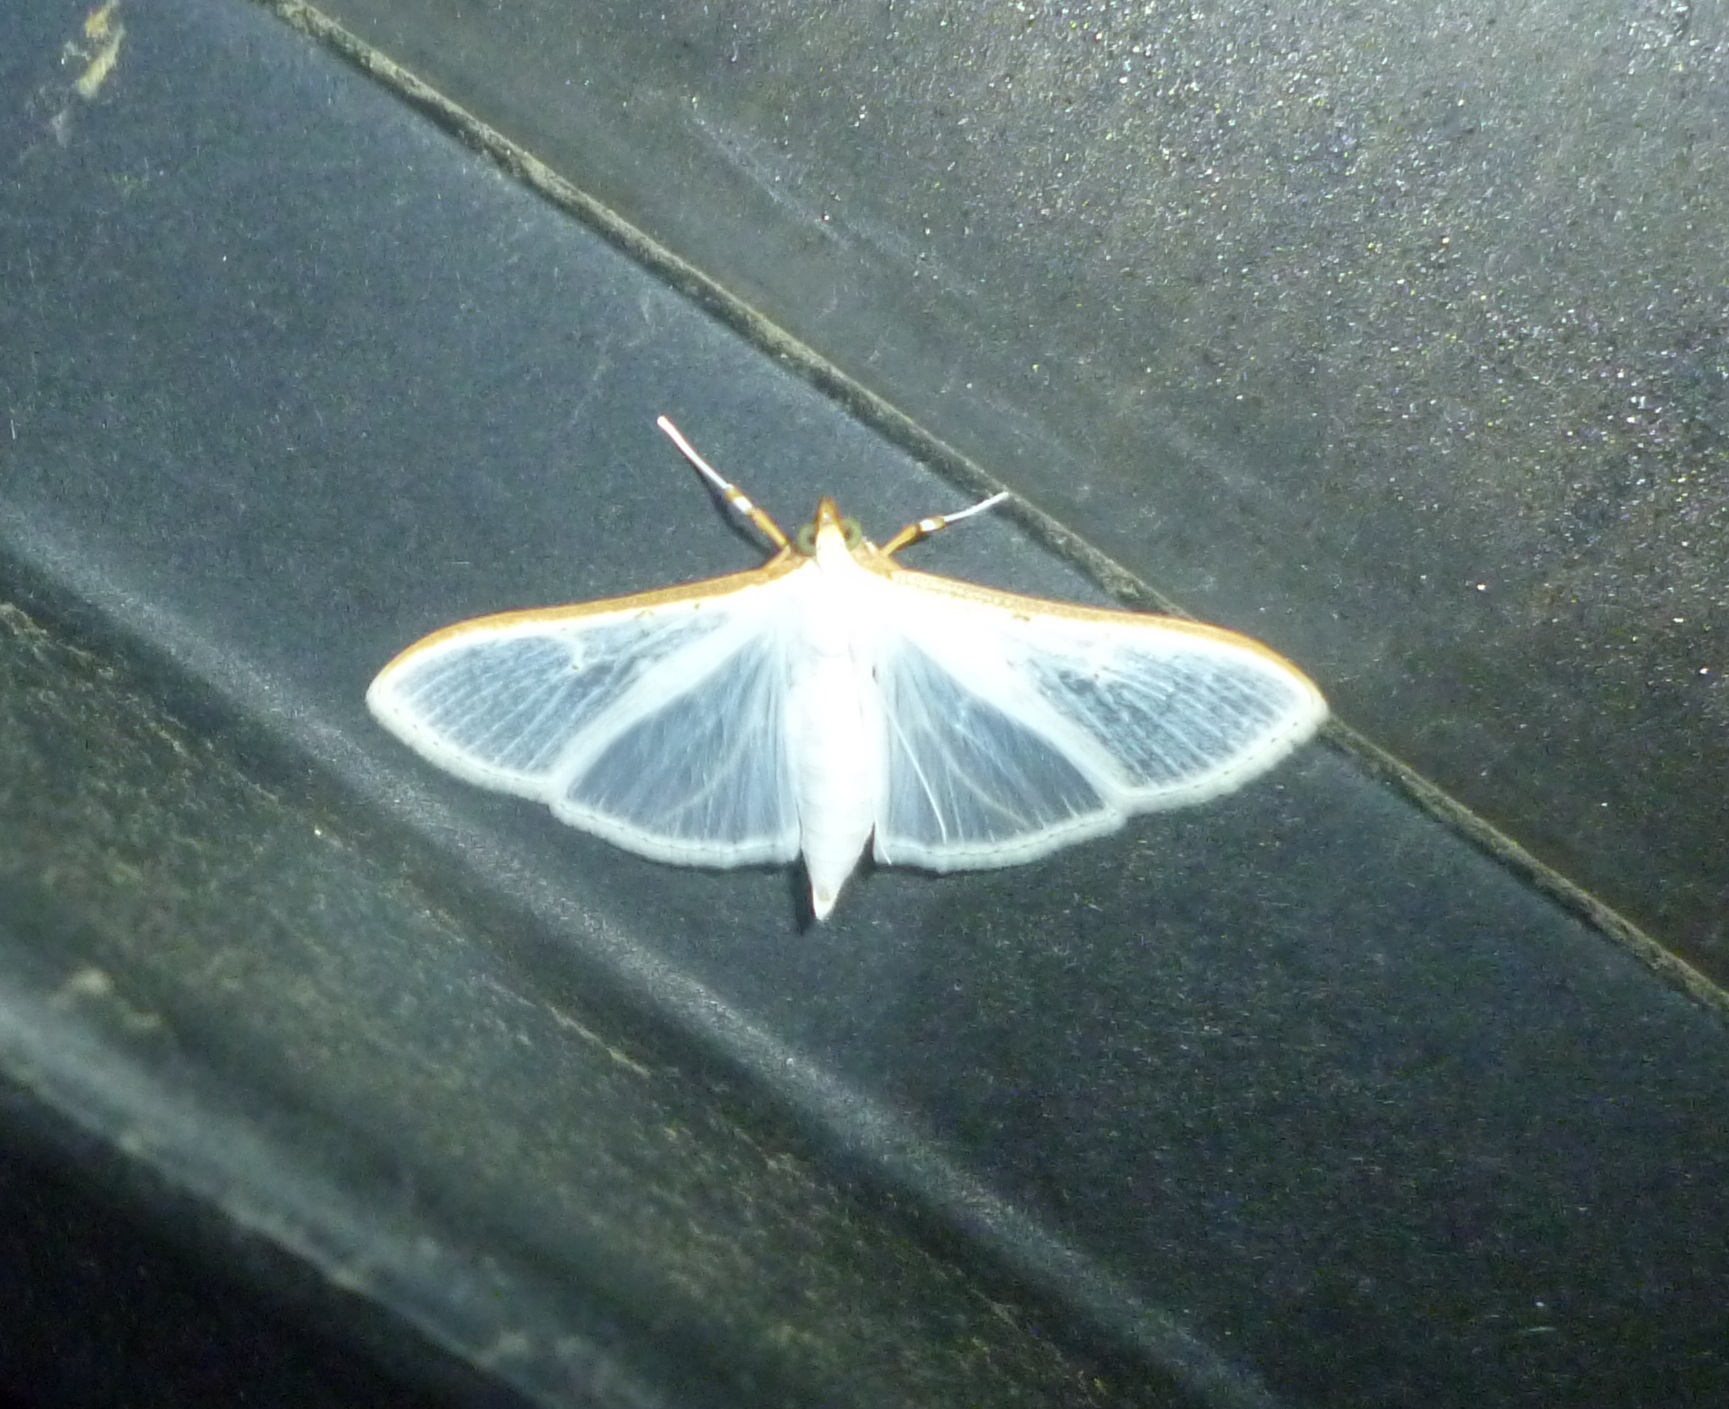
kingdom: Animalia
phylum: Arthropoda
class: Insecta
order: Lepidoptera
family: Crambidae
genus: Palpita
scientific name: Palpita vitrealis
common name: Olive-tree pearl
